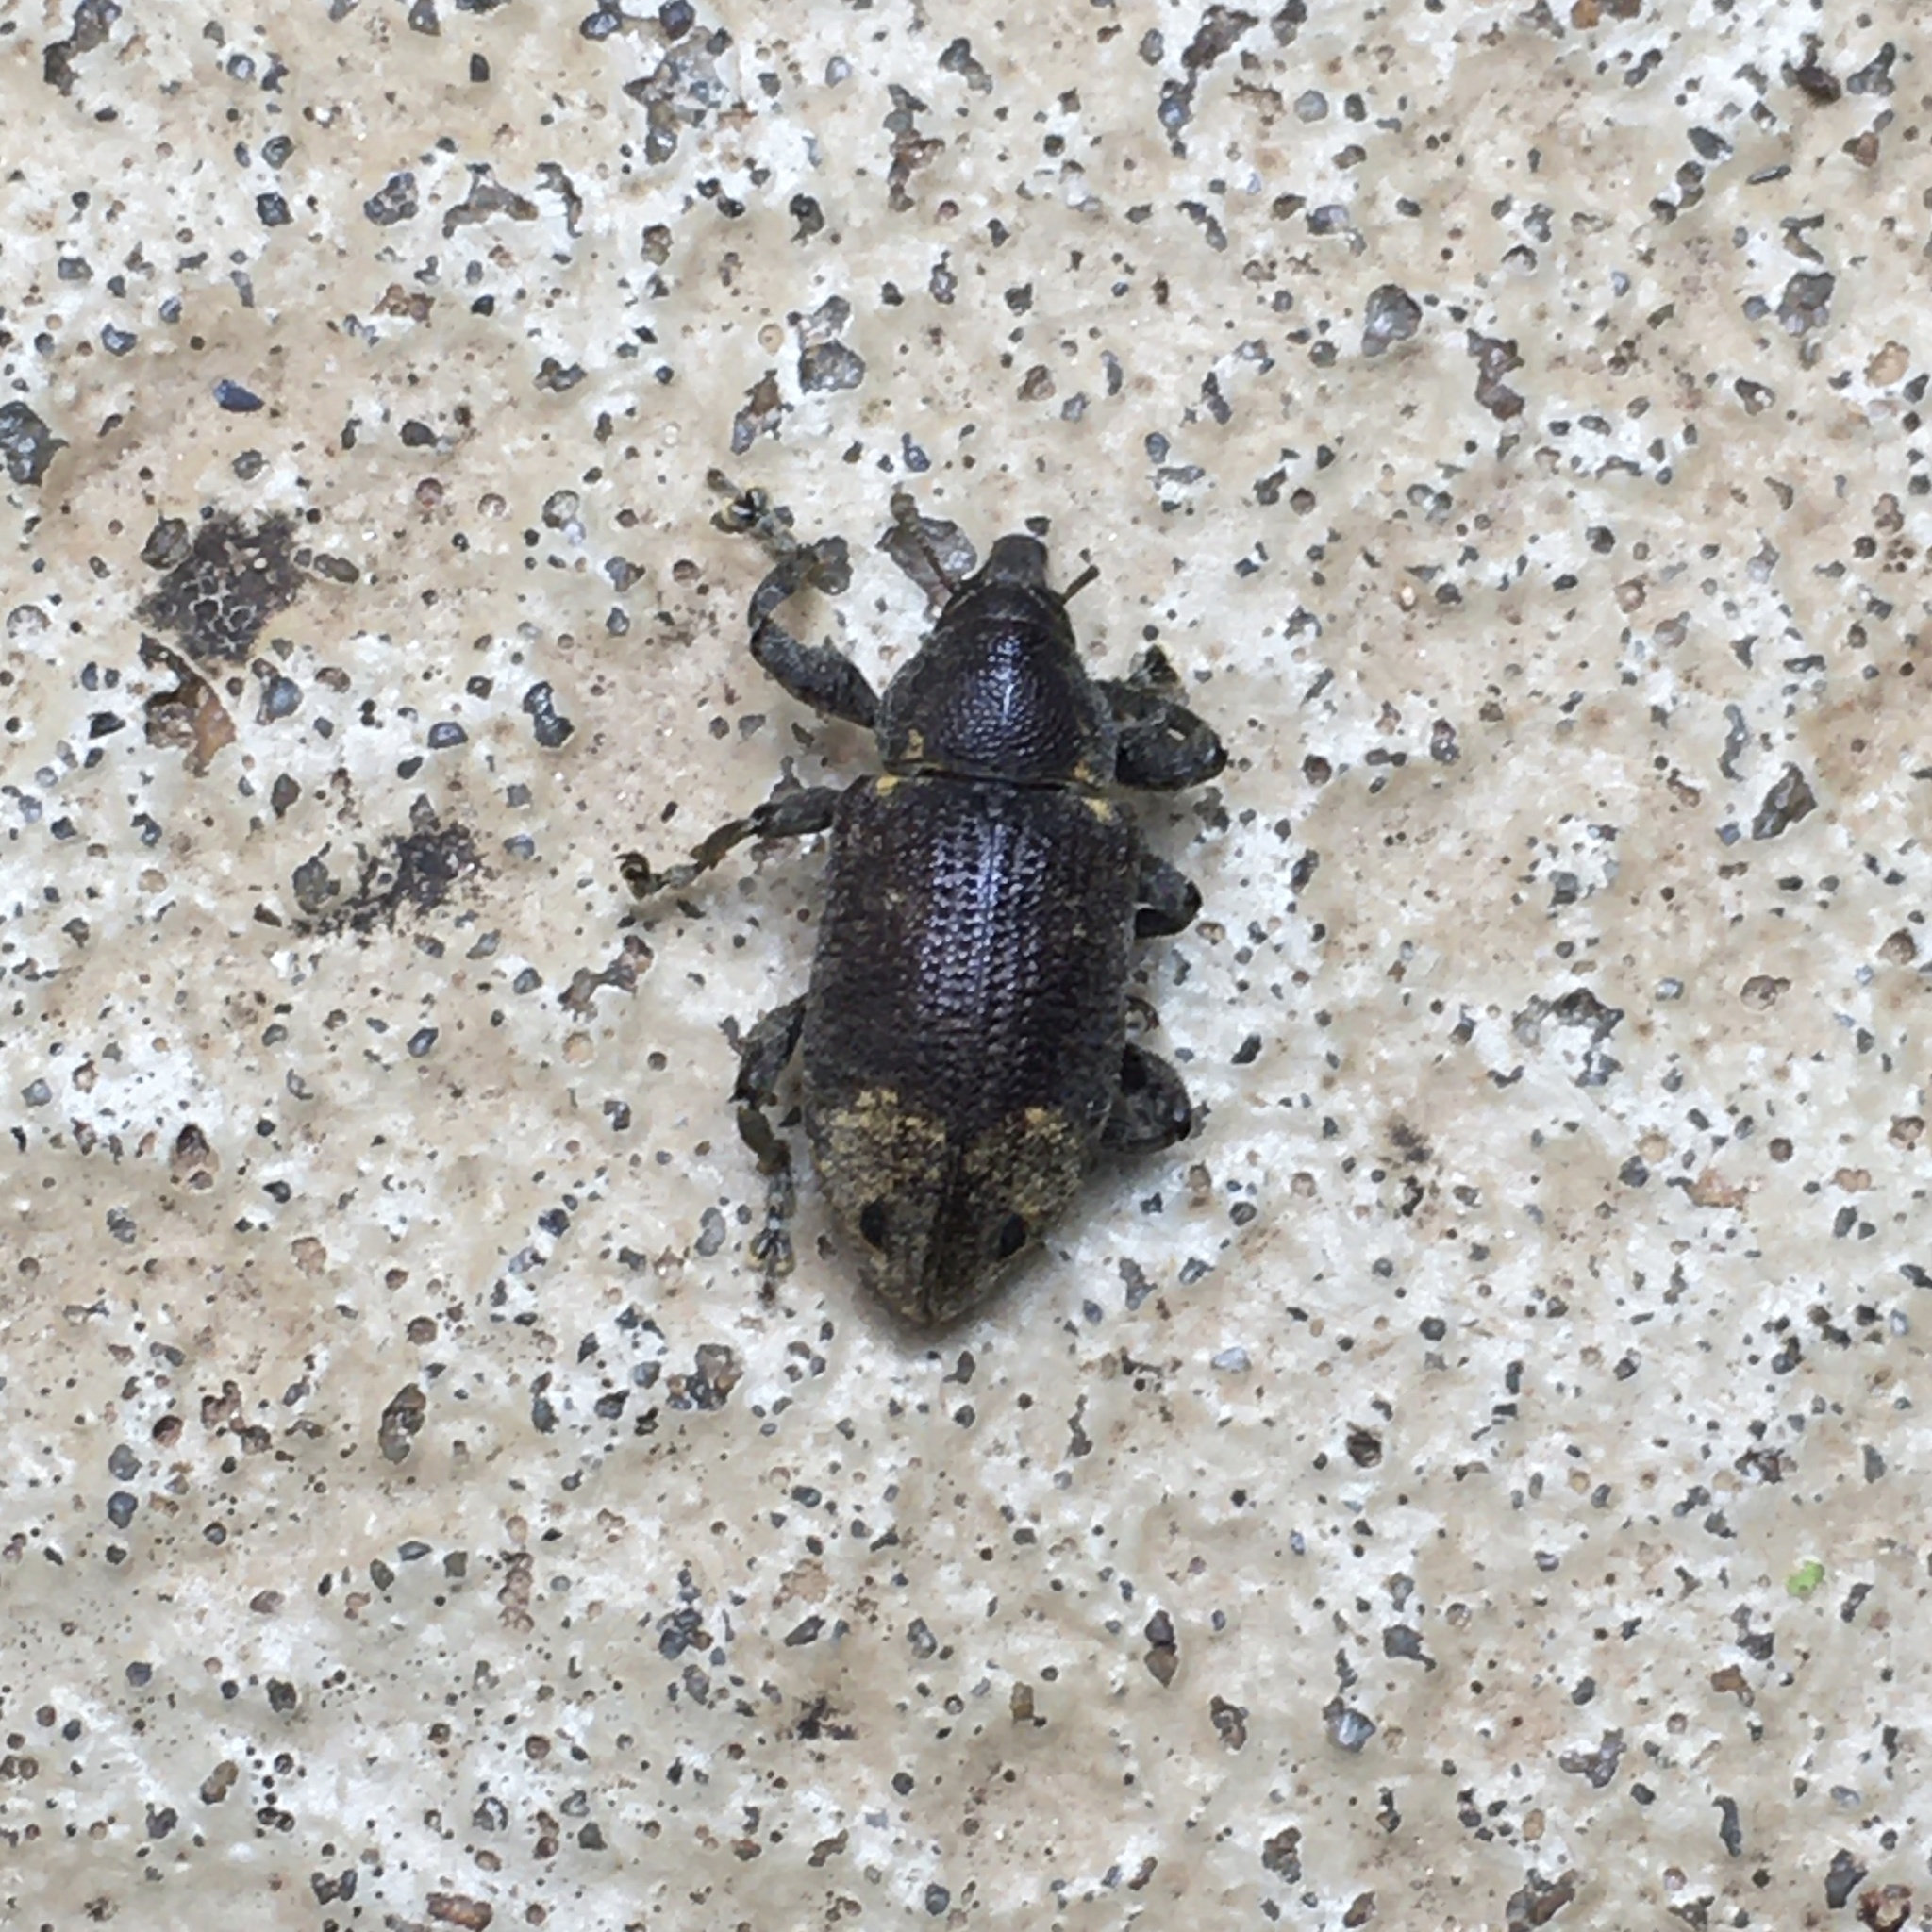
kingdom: Animalia
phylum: Arthropoda
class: Insecta
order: Coleoptera
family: Curculionidae
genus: Arniticus
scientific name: Arniticus hylobioides
